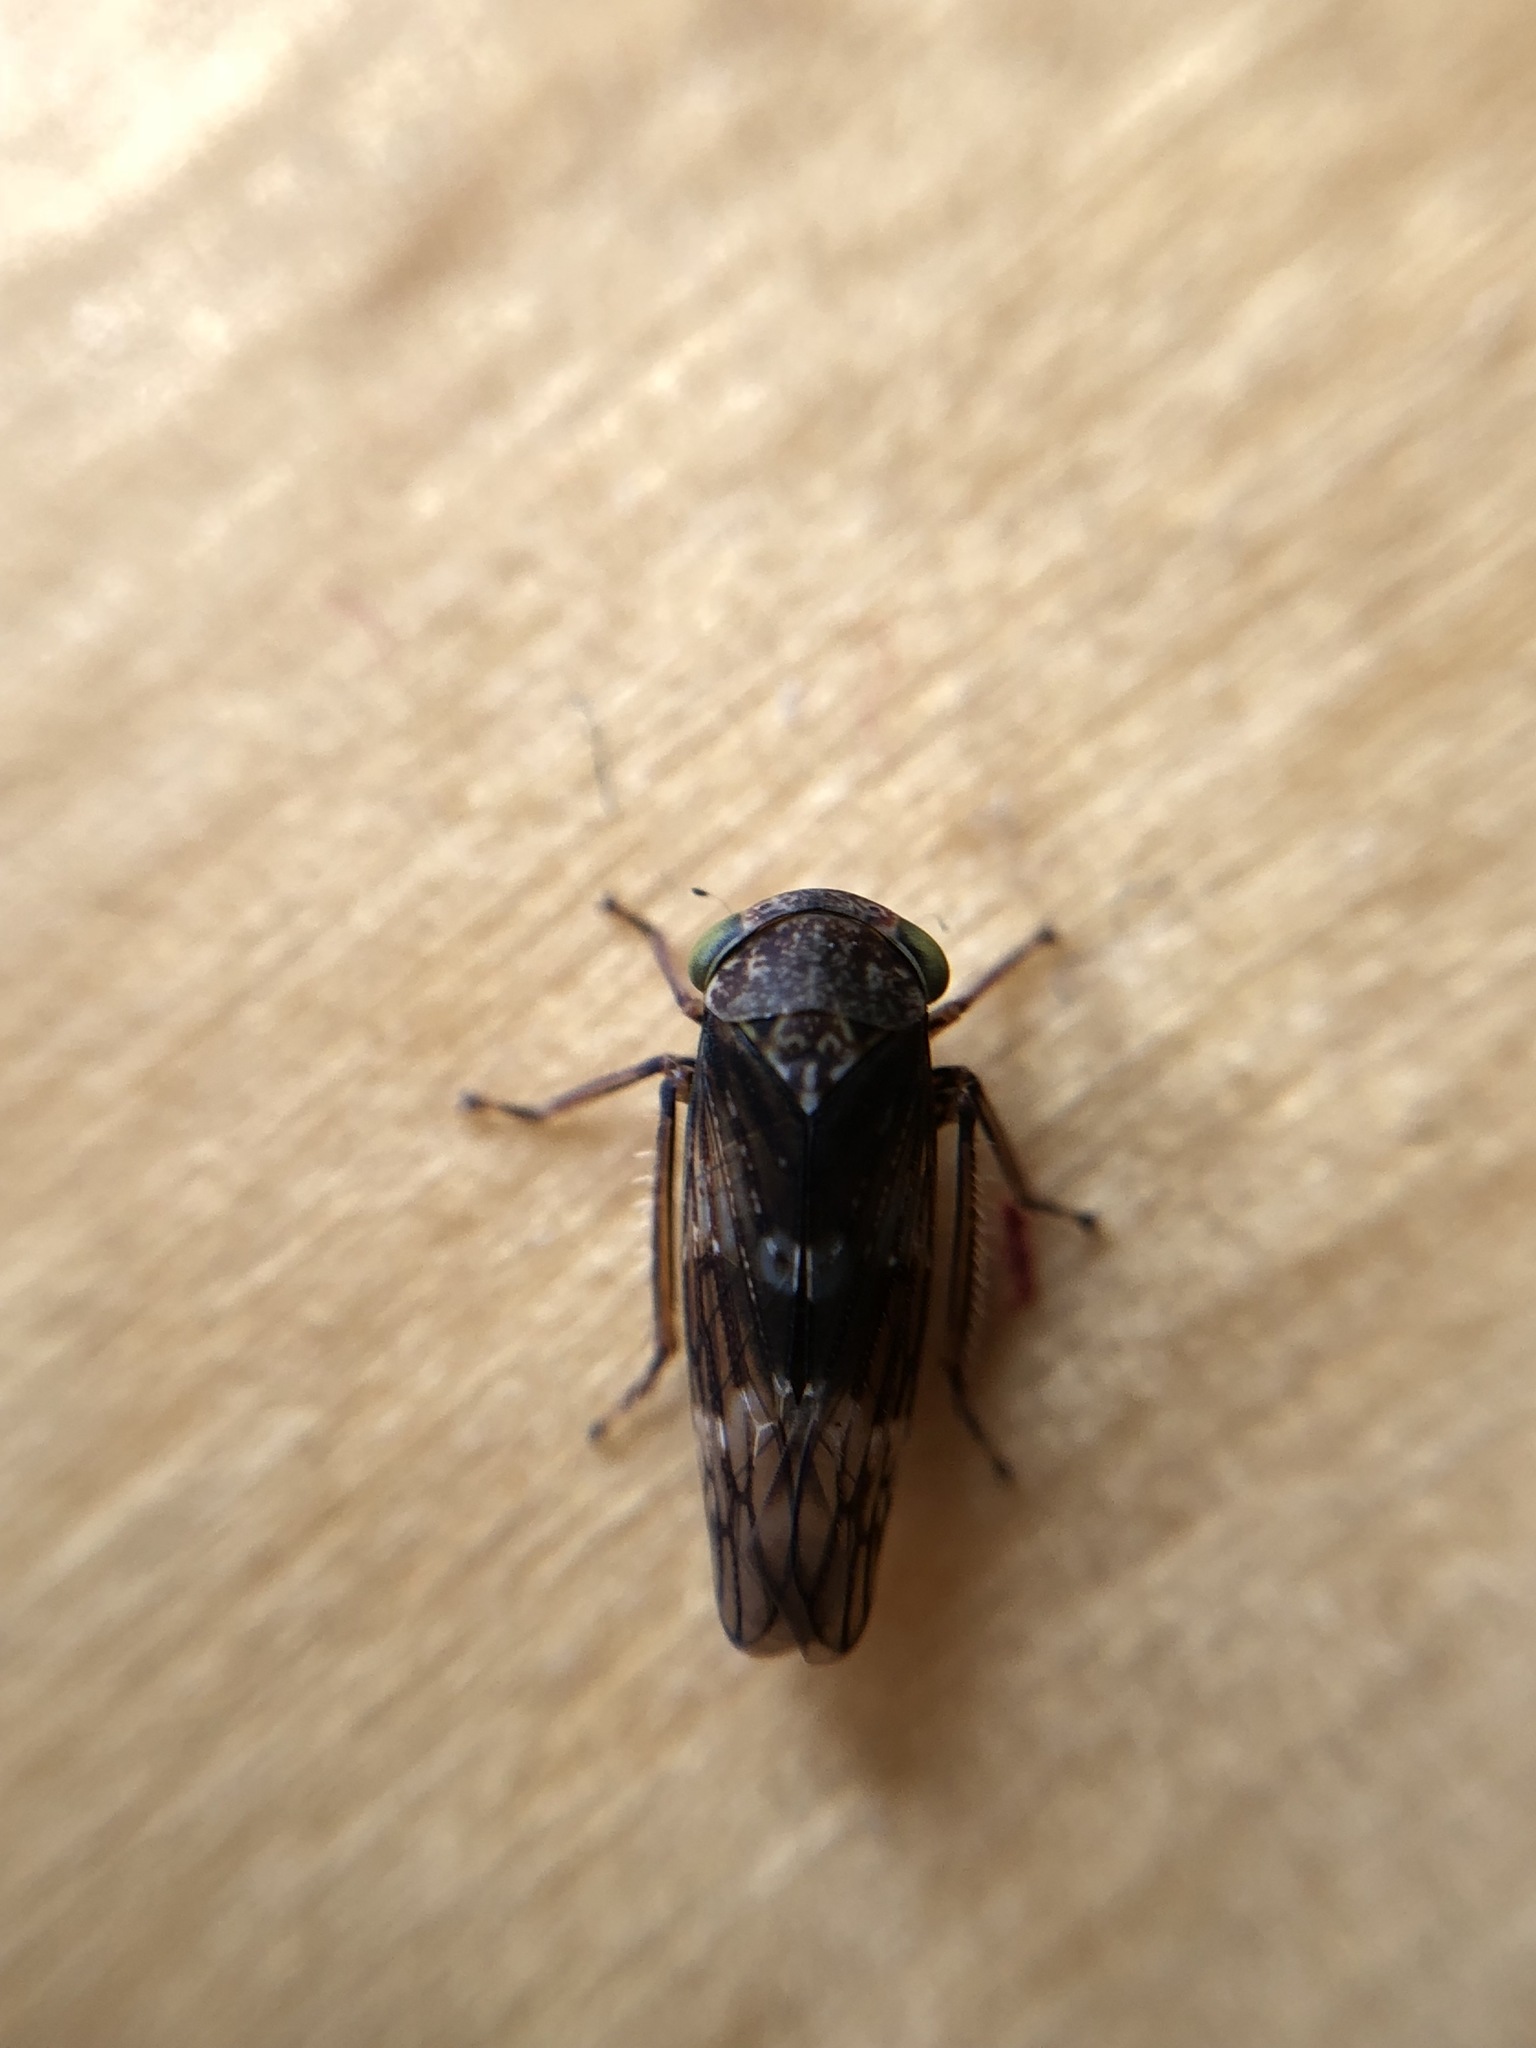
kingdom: Animalia
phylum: Arthropoda
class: Insecta
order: Hemiptera
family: Cicadellidae
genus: Acericerus
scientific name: Acericerus ribauti
